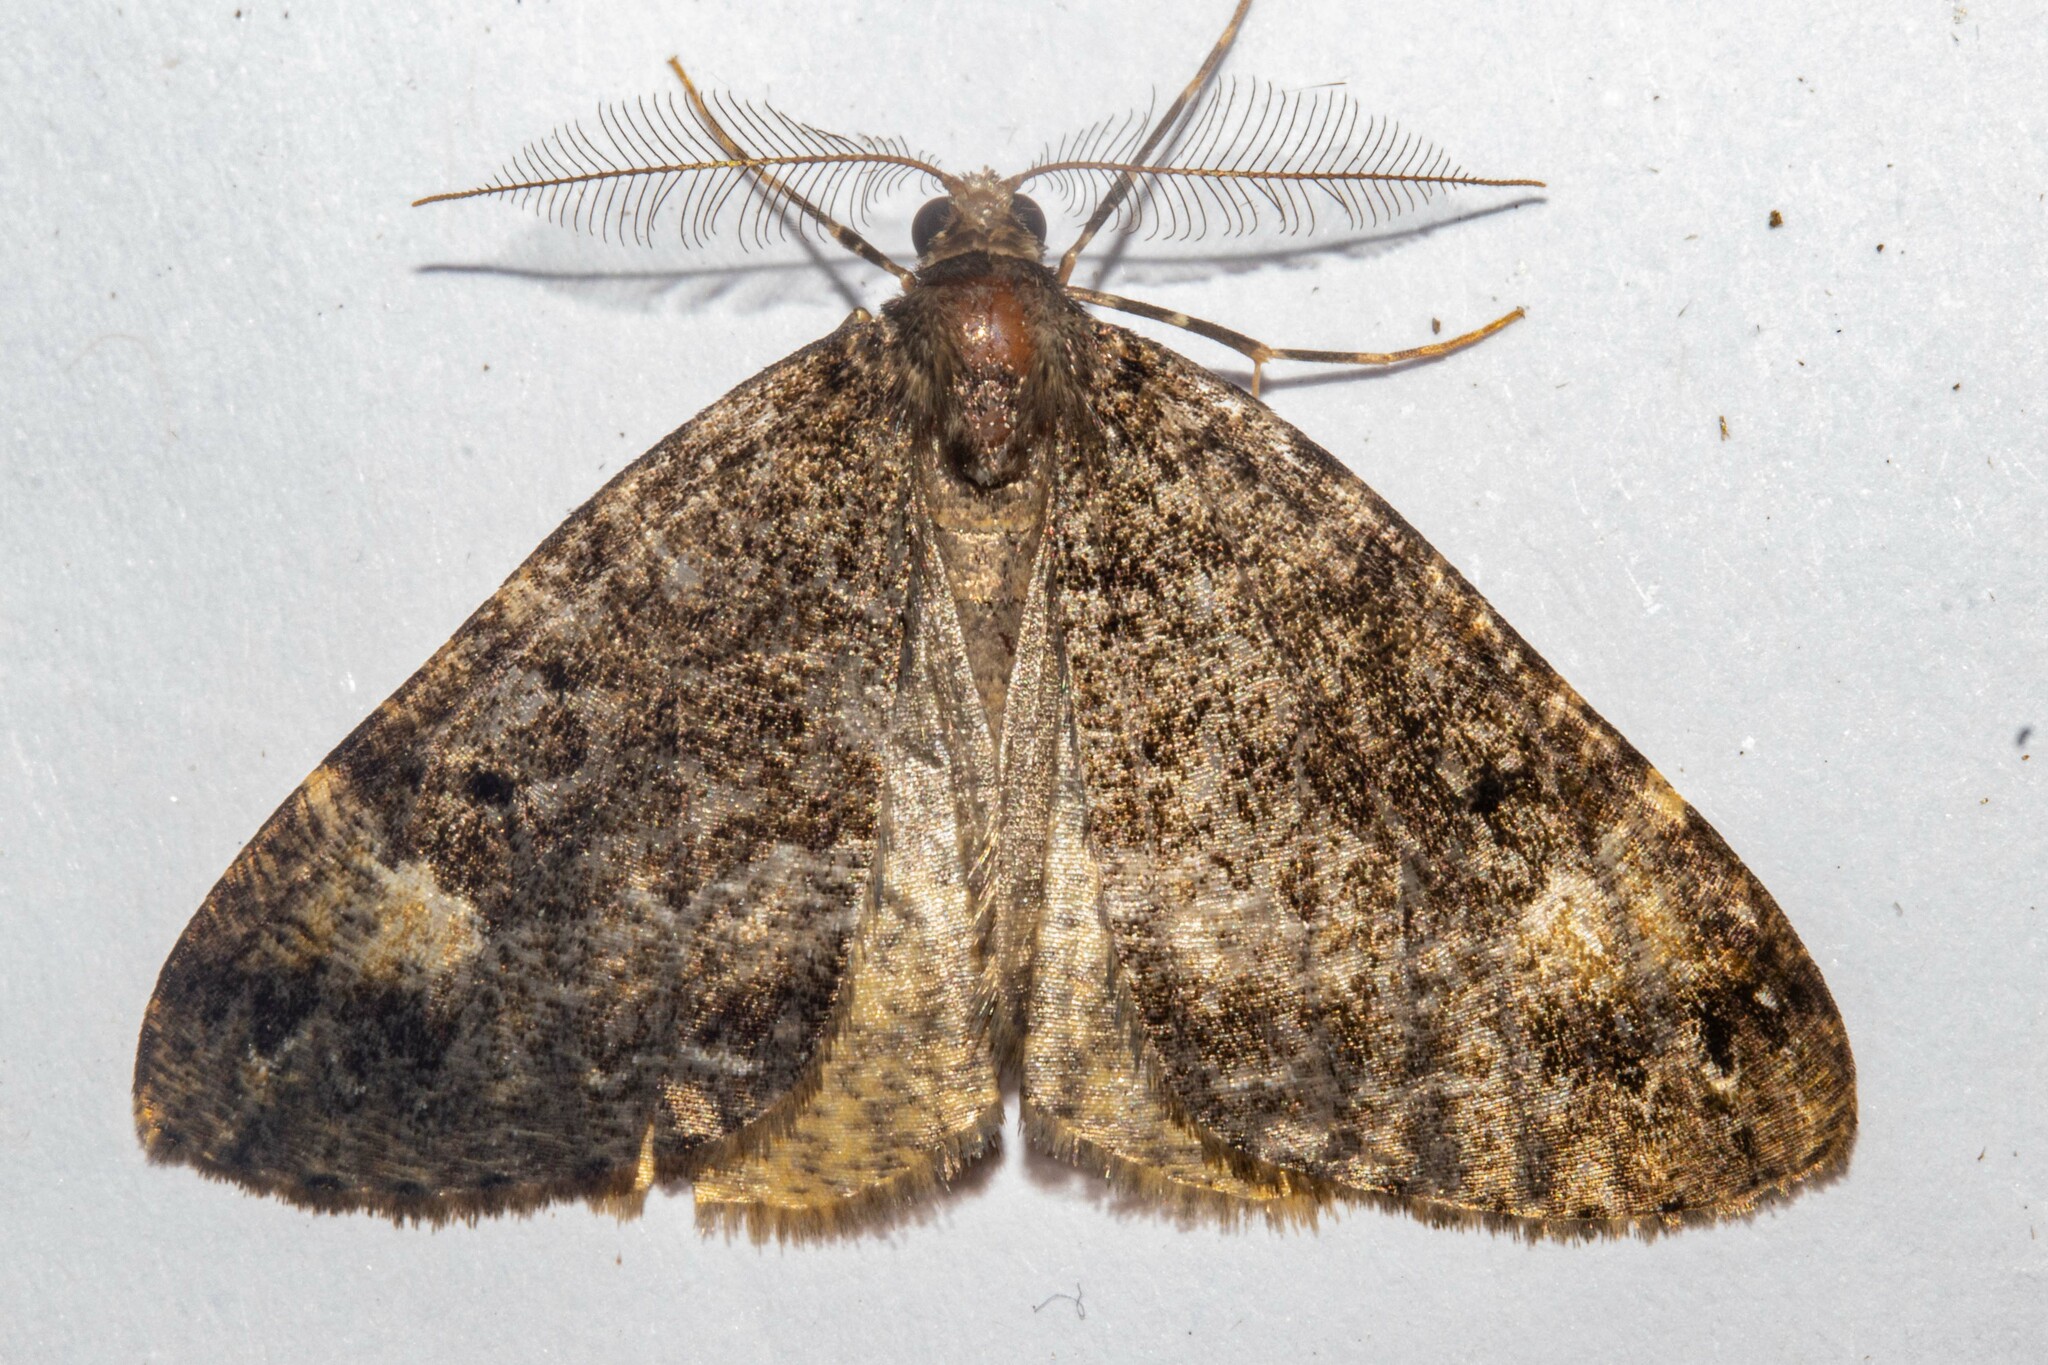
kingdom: Animalia
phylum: Arthropoda
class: Insecta
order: Lepidoptera
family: Geometridae
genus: Pseudocoremia
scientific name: Pseudocoremia productata
